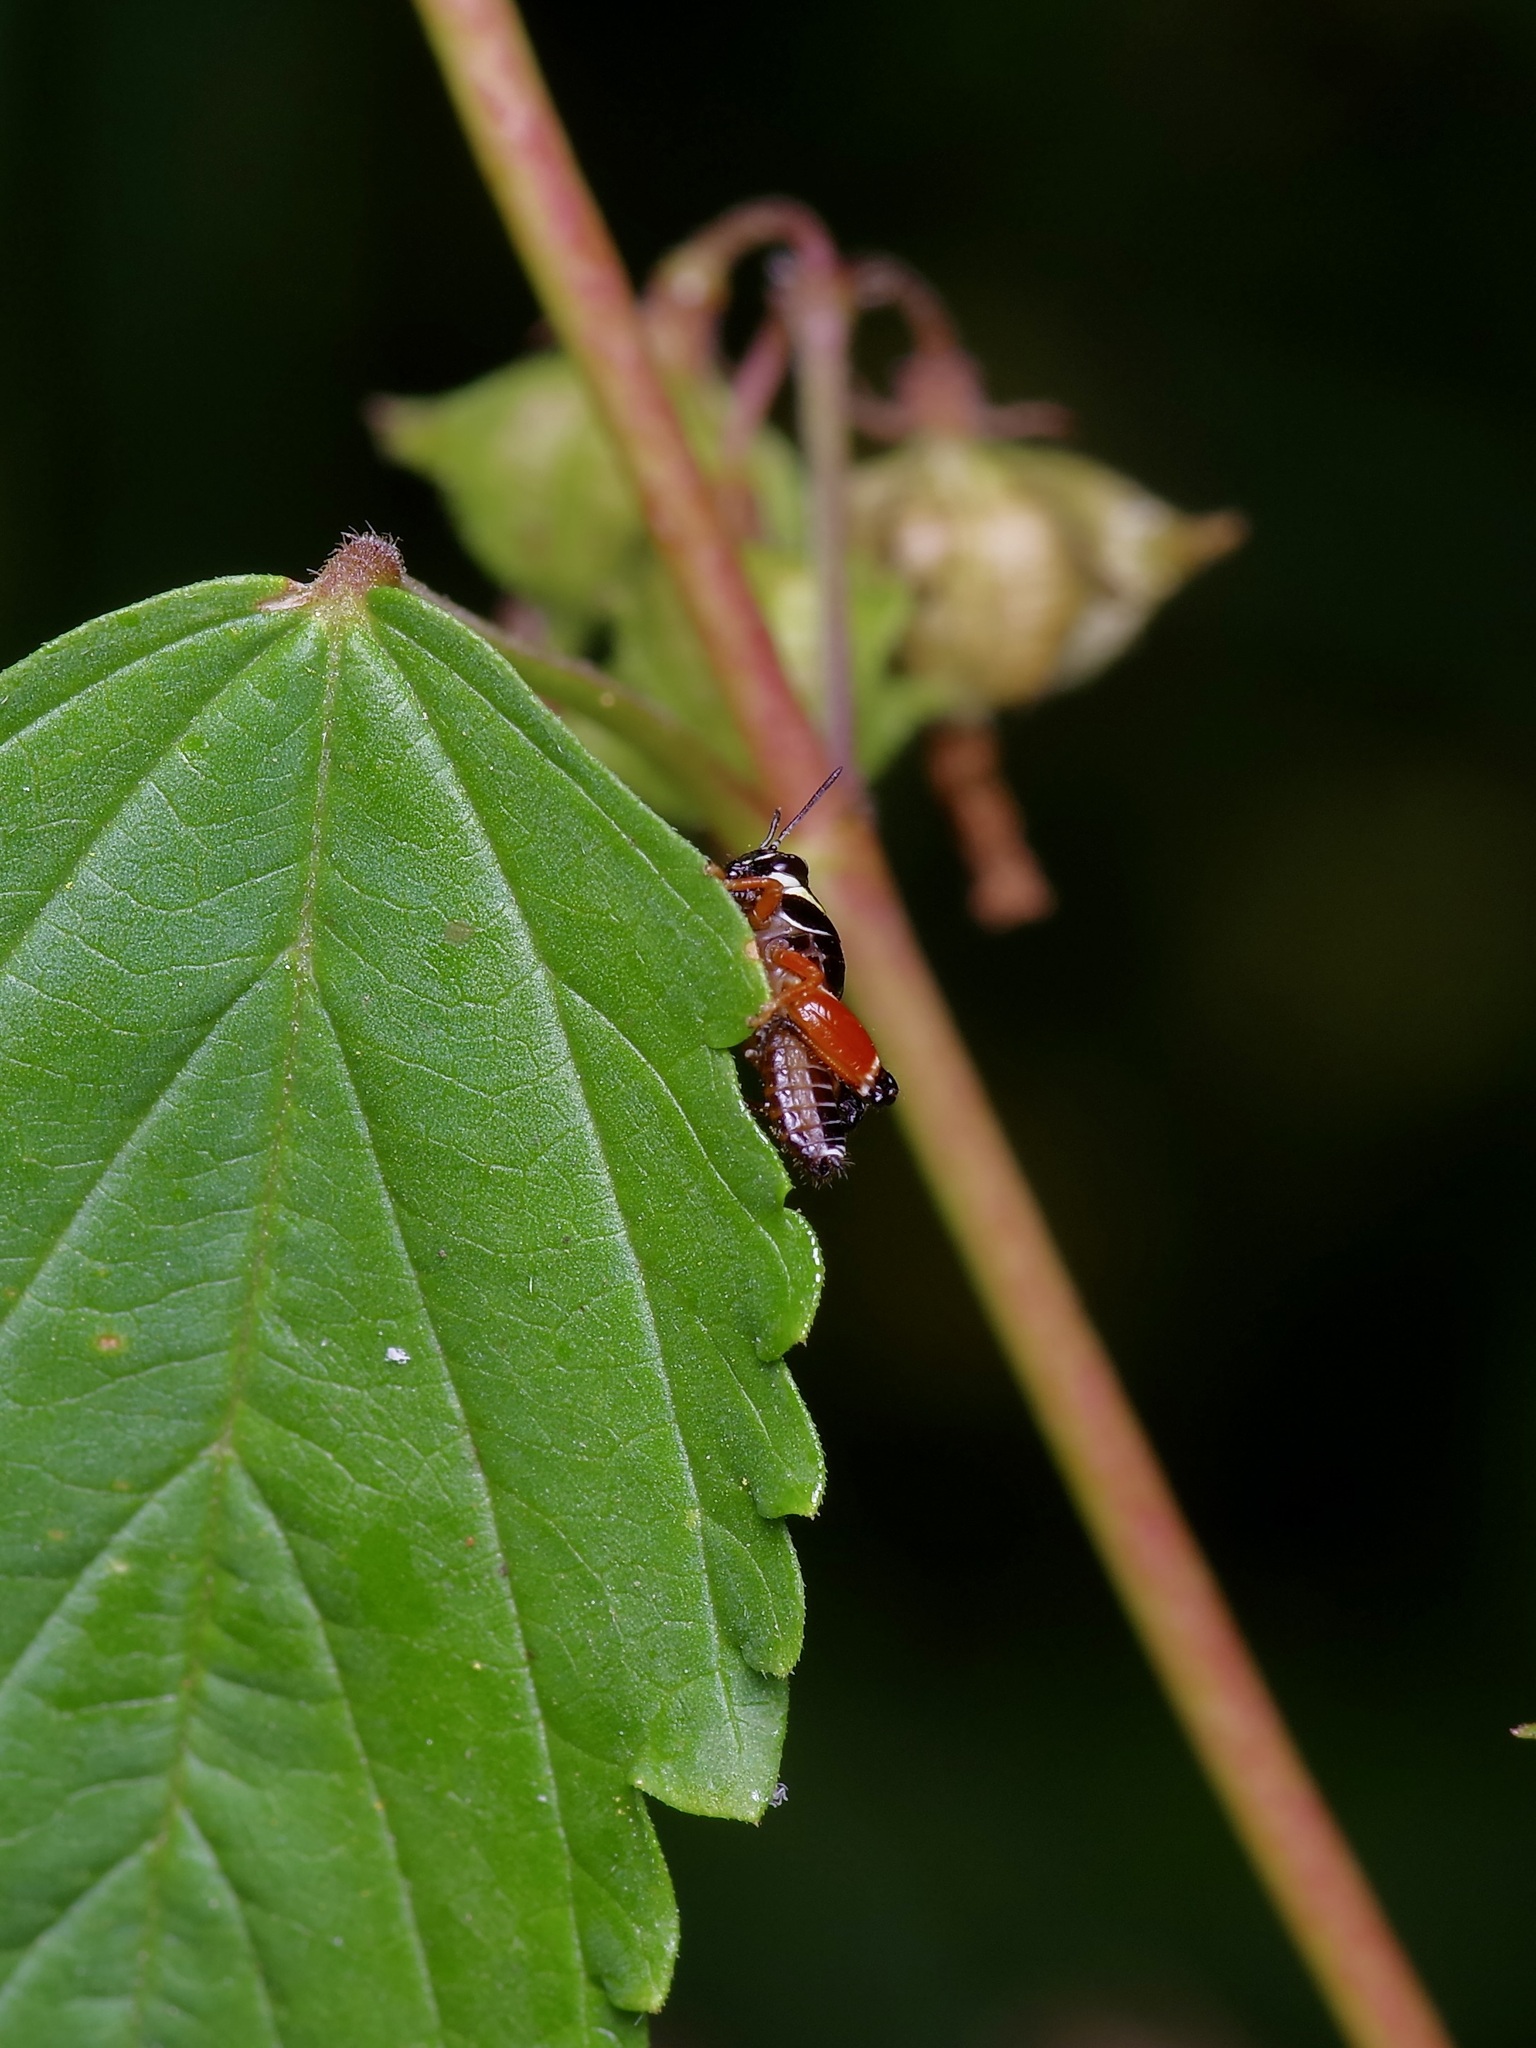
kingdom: Animalia
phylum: Arthropoda
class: Insecta
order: Orthoptera
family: Acrididae
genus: Aidemona
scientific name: Aidemona azteca
